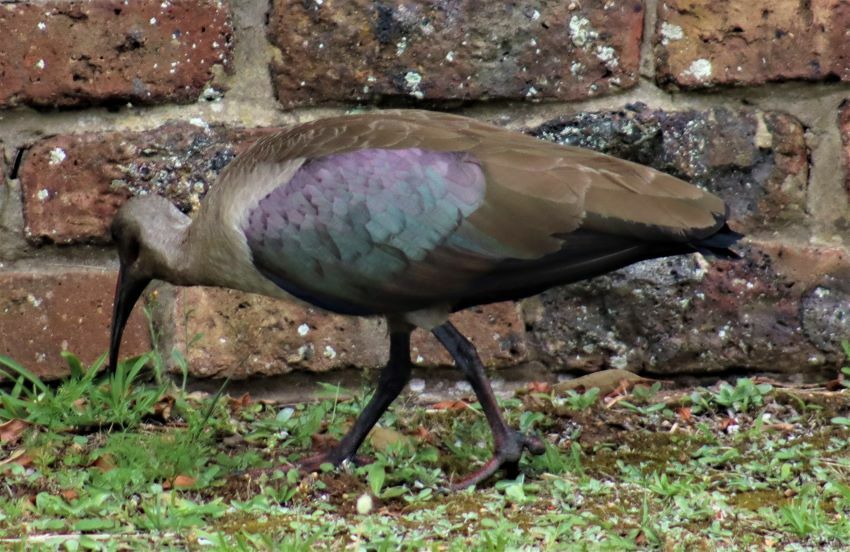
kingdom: Animalia
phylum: Chordata
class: Aves
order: Pelecaniformes
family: Threskiornithidae
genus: Bostrychia
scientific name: Bostrychia hagedash
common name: Hadada ibis
